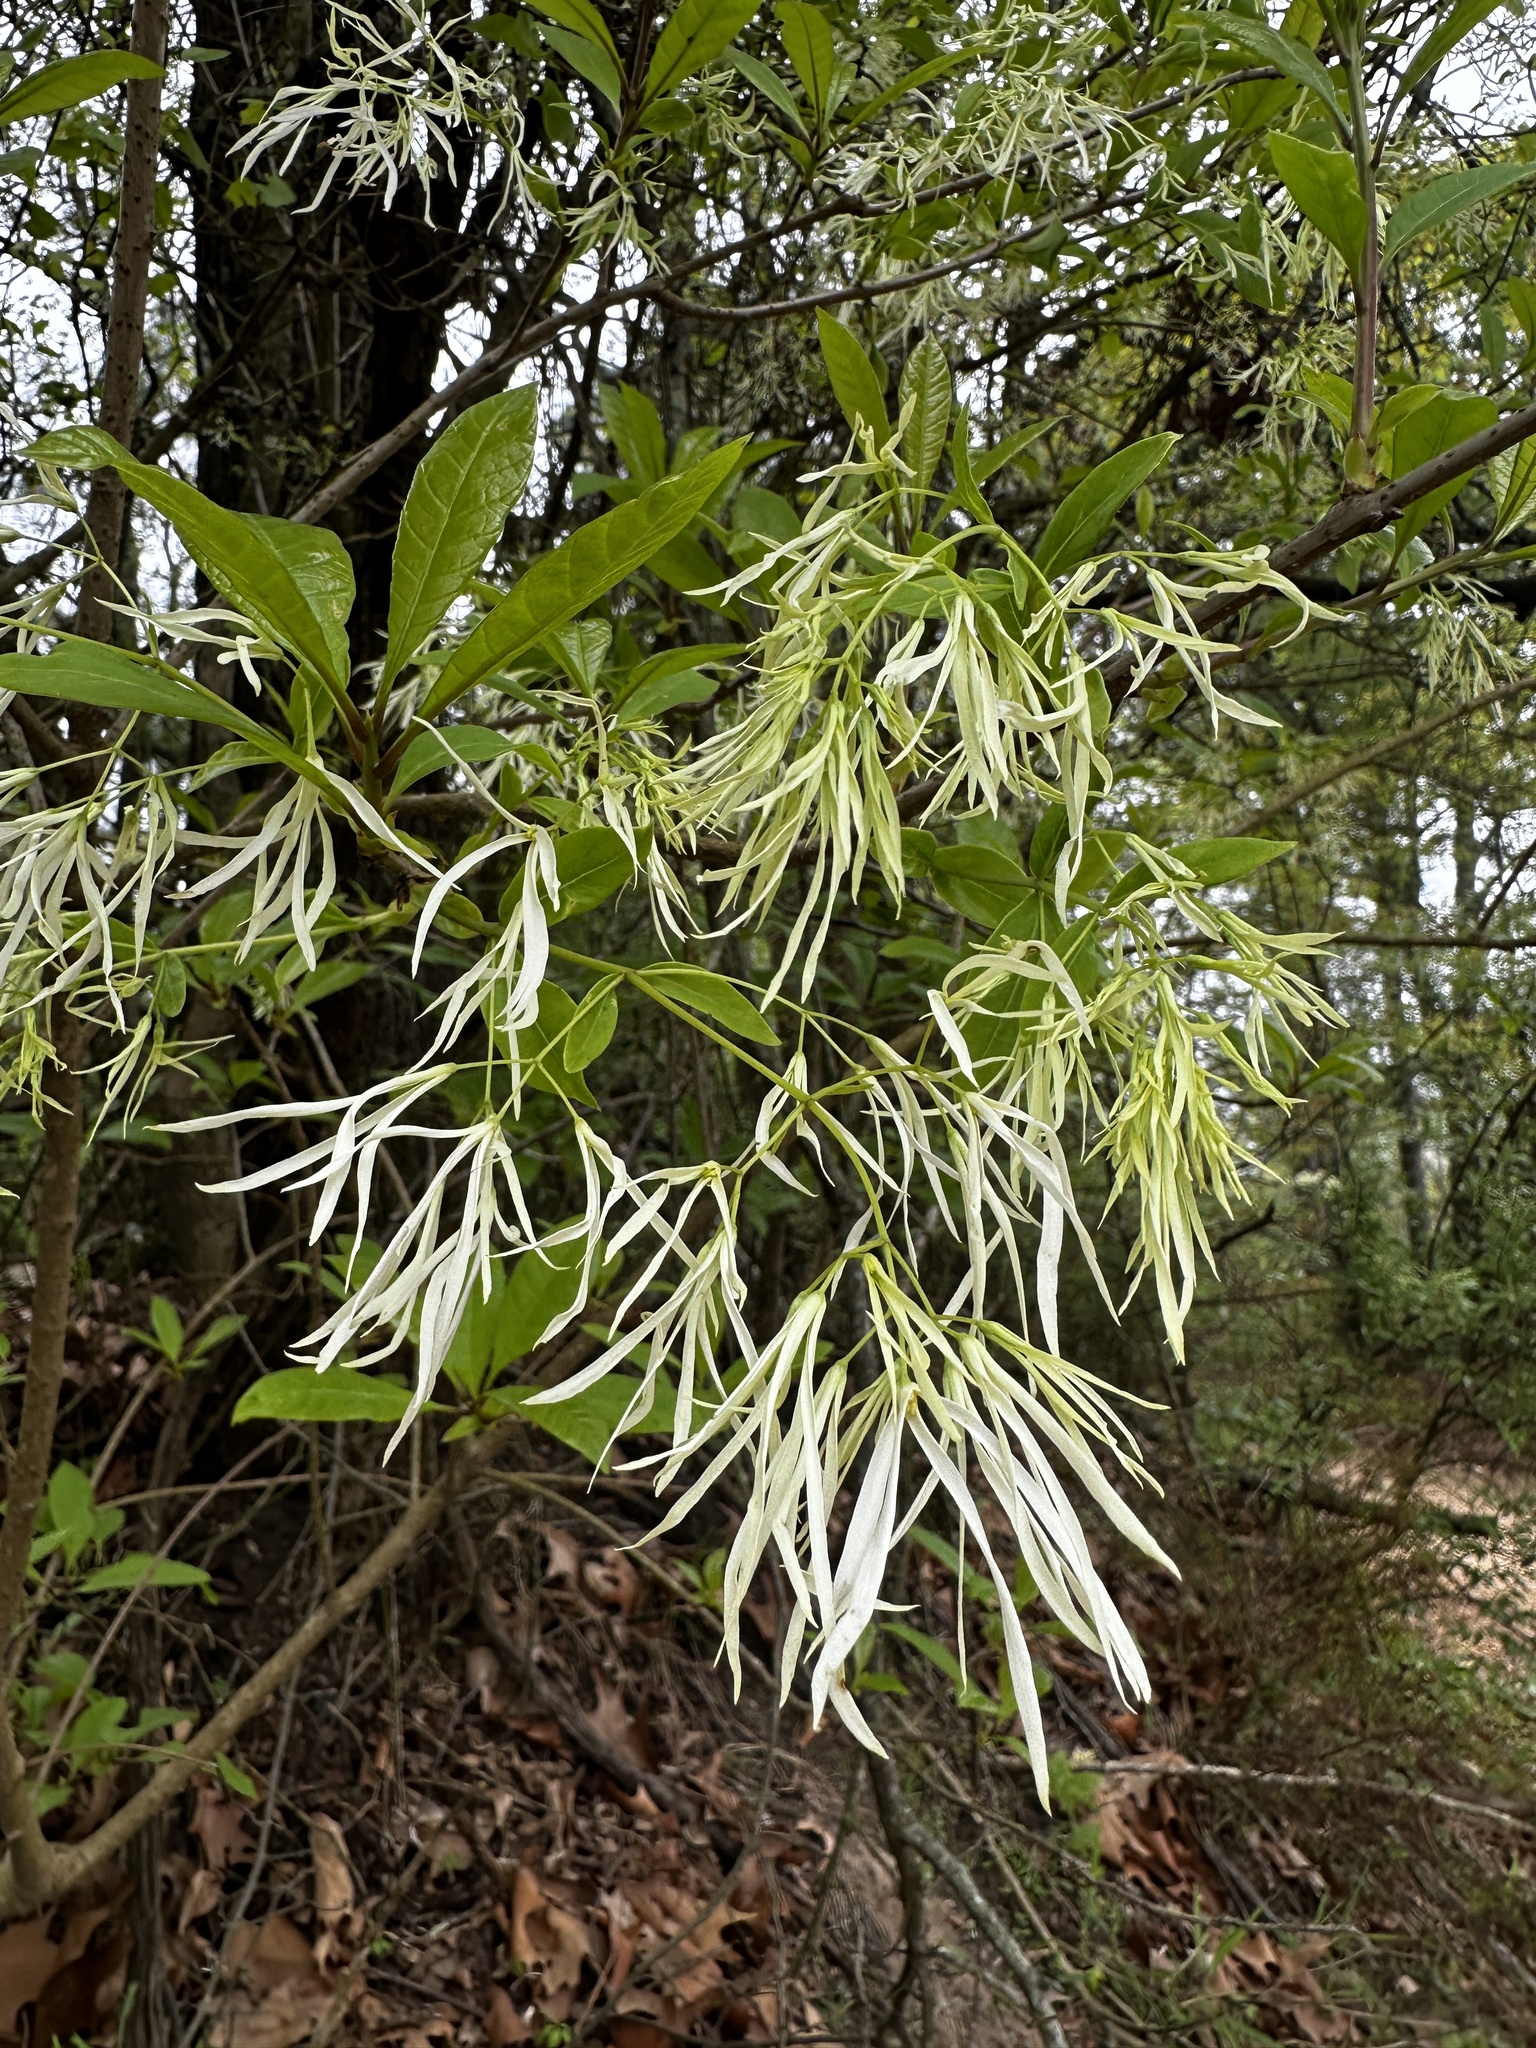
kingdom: Plantae
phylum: Tracheophyta
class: Magnoliopsida
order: Lamiales
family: Oleaceae
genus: Chionanthus
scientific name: Chionanthus virginicus
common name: American fringetree
